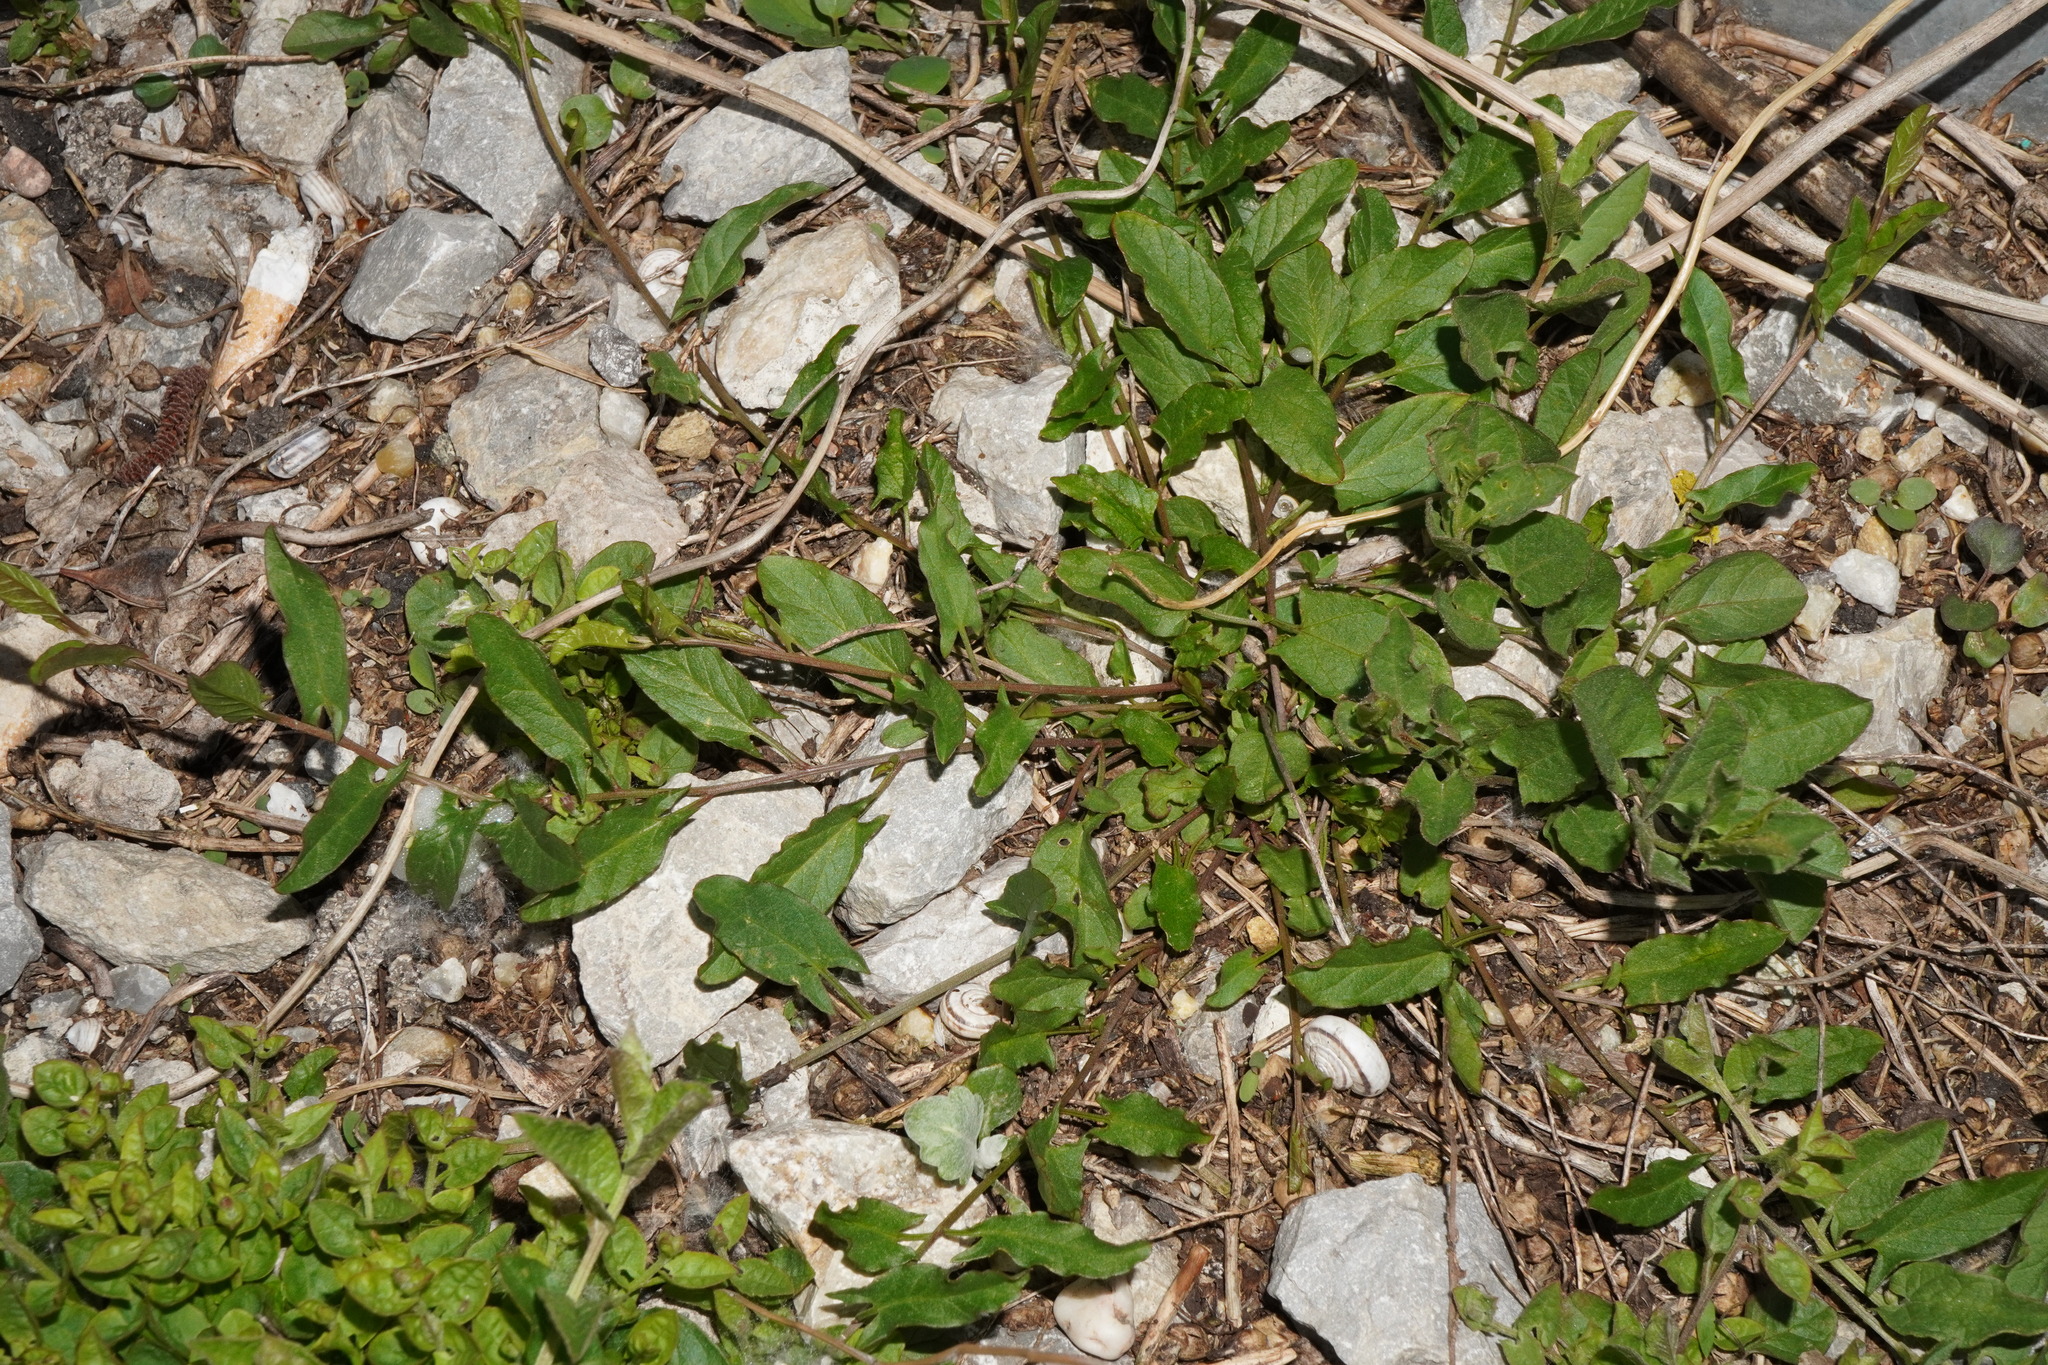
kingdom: Plantae
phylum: Tracheophyta
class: Magnoliopsida
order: Solanales
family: Convolvulaceae
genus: Convolvulus
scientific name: Convolvulus arvensis
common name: Field bindweed
